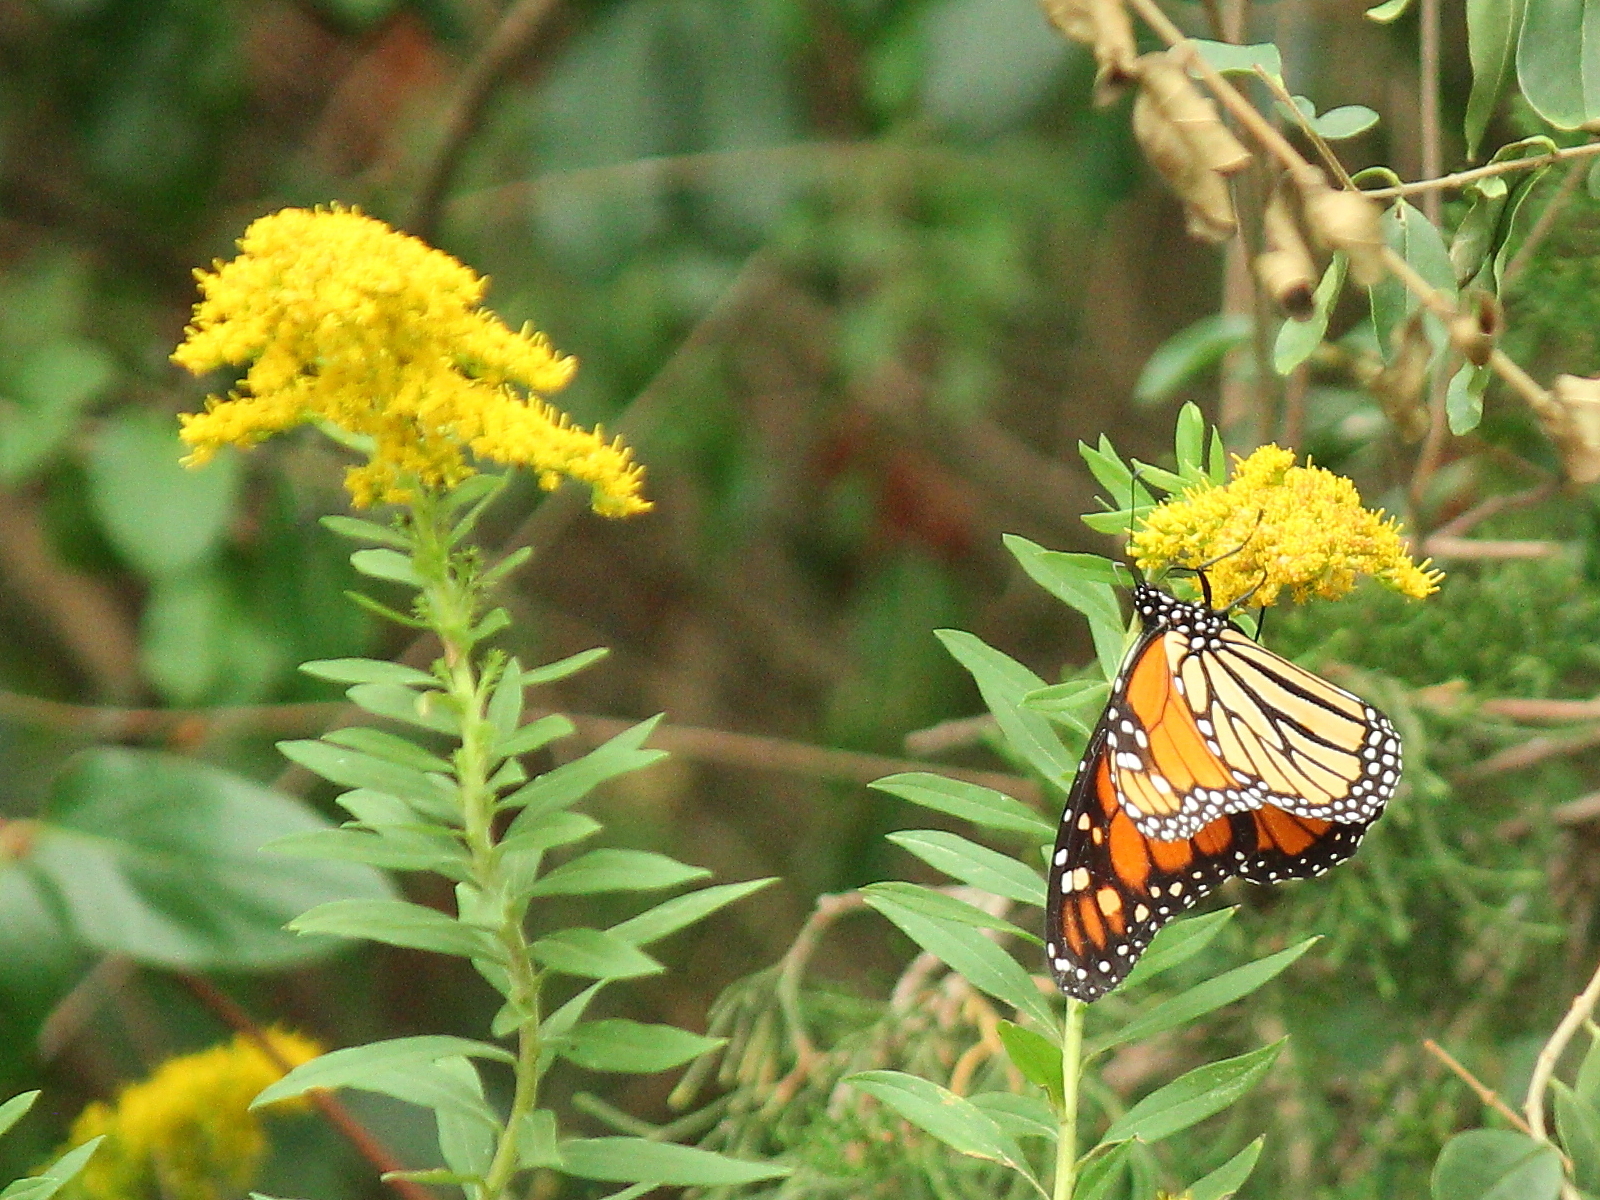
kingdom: Animalia
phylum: Arthropoda
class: Insecta
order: Lepidoptera
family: Nymphalidae
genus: Danaus
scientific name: Danaus plexippus
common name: Monarch
